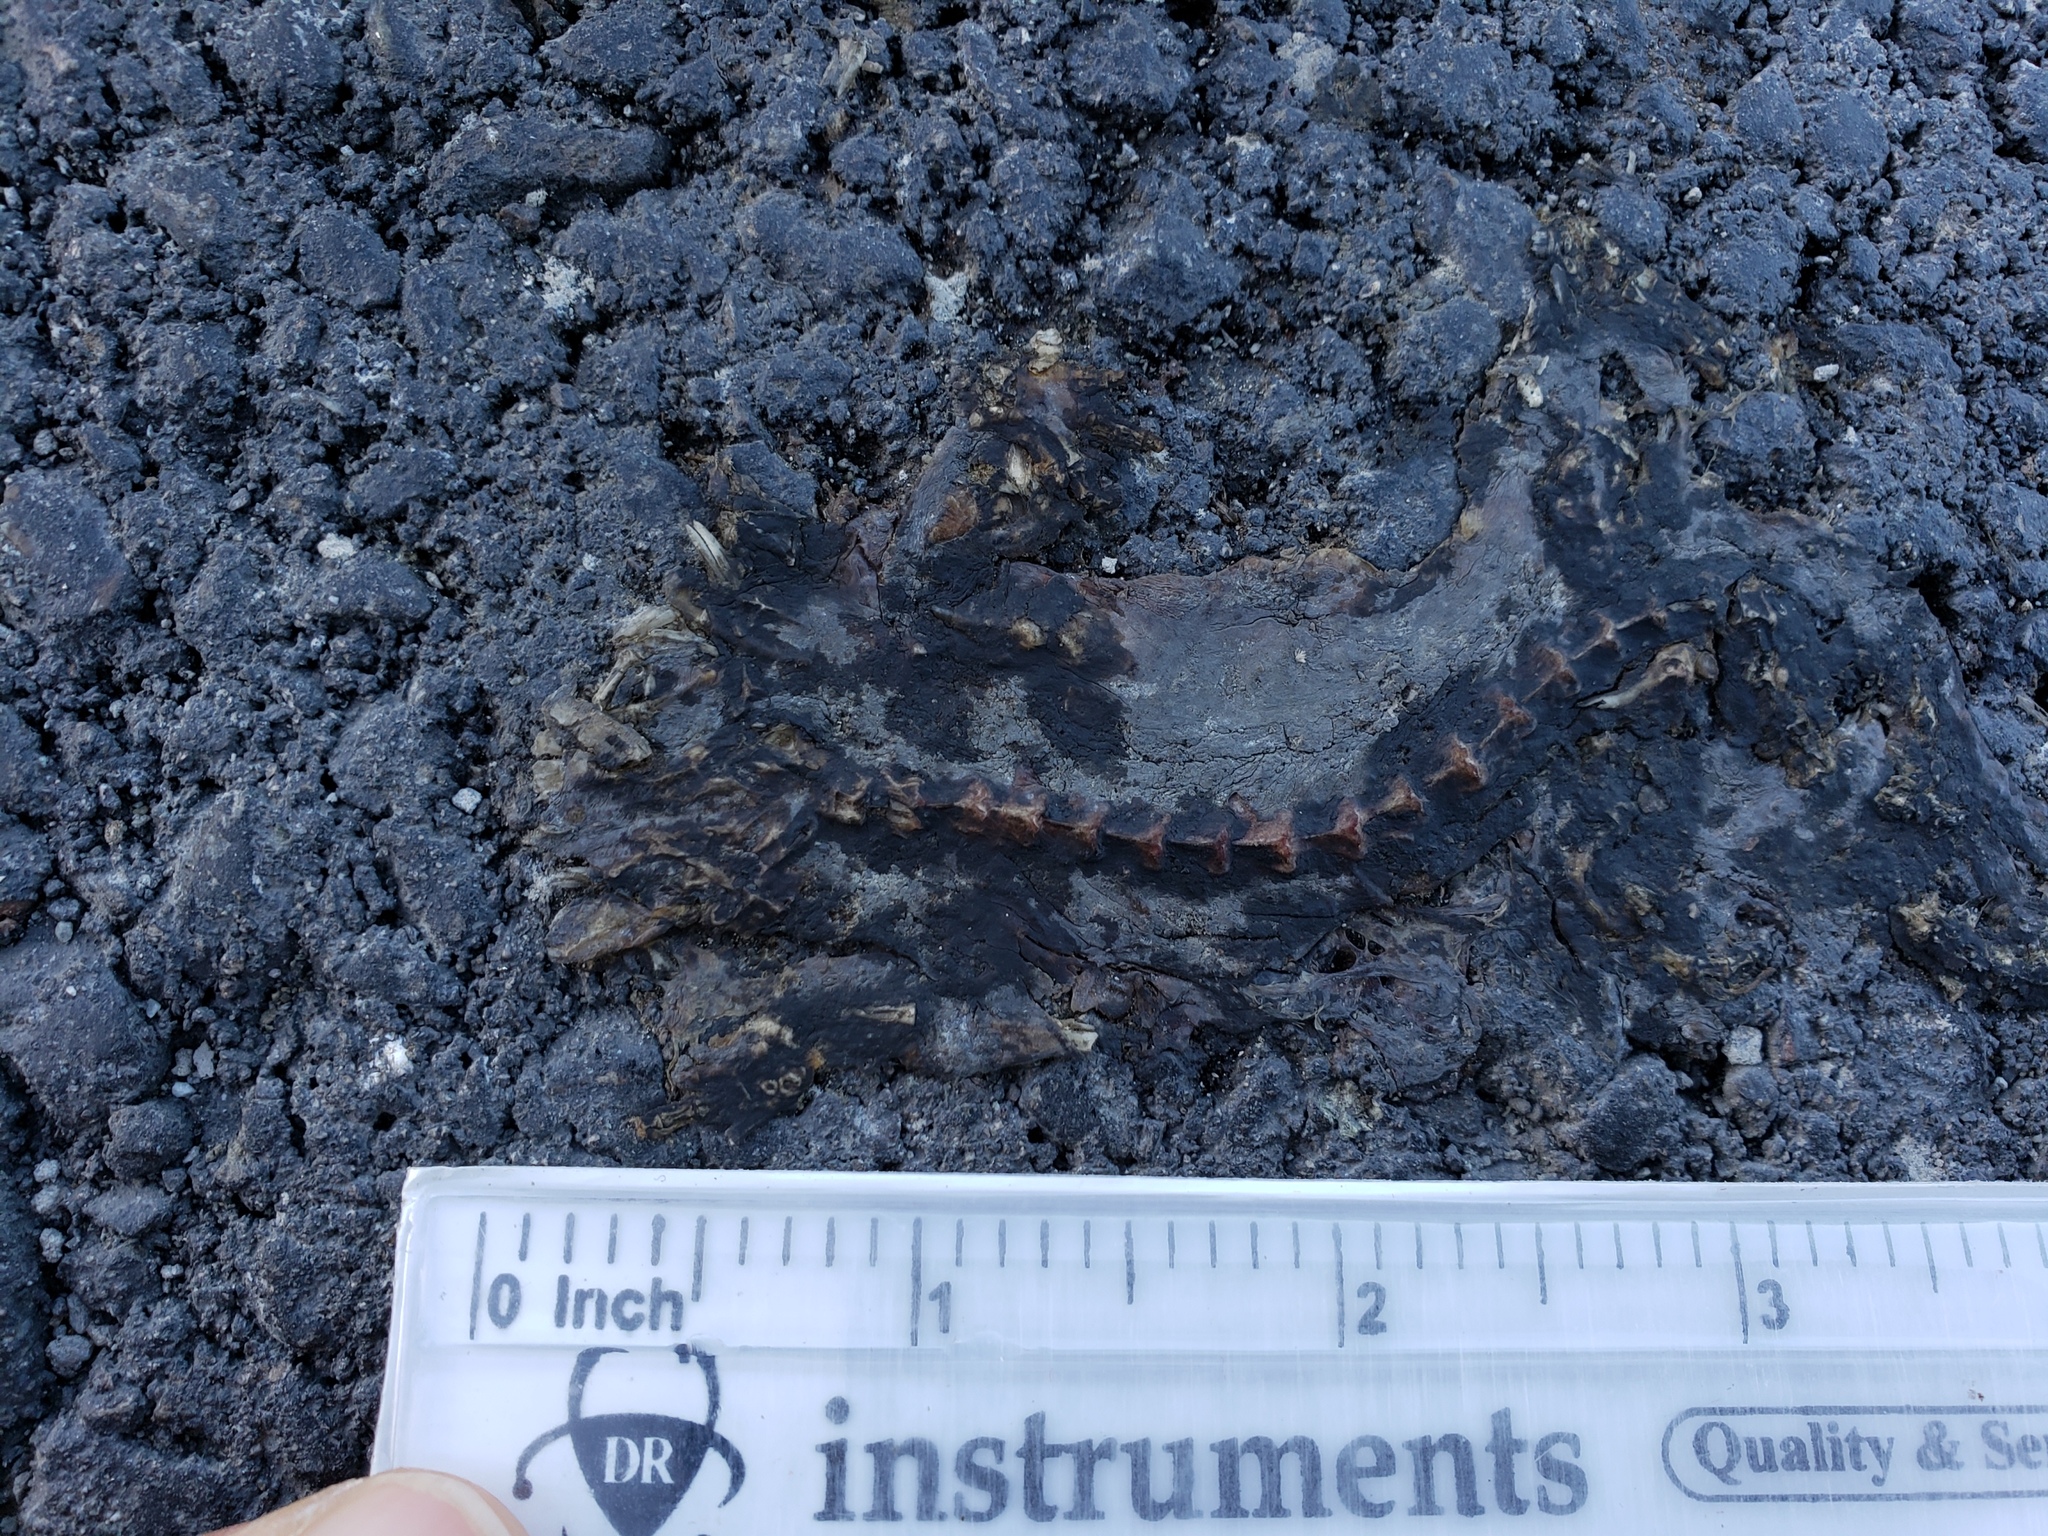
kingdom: Animalia
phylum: Chordata
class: Amphibia
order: Caudata
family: Salamandridae
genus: Taricha
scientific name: Taricha
